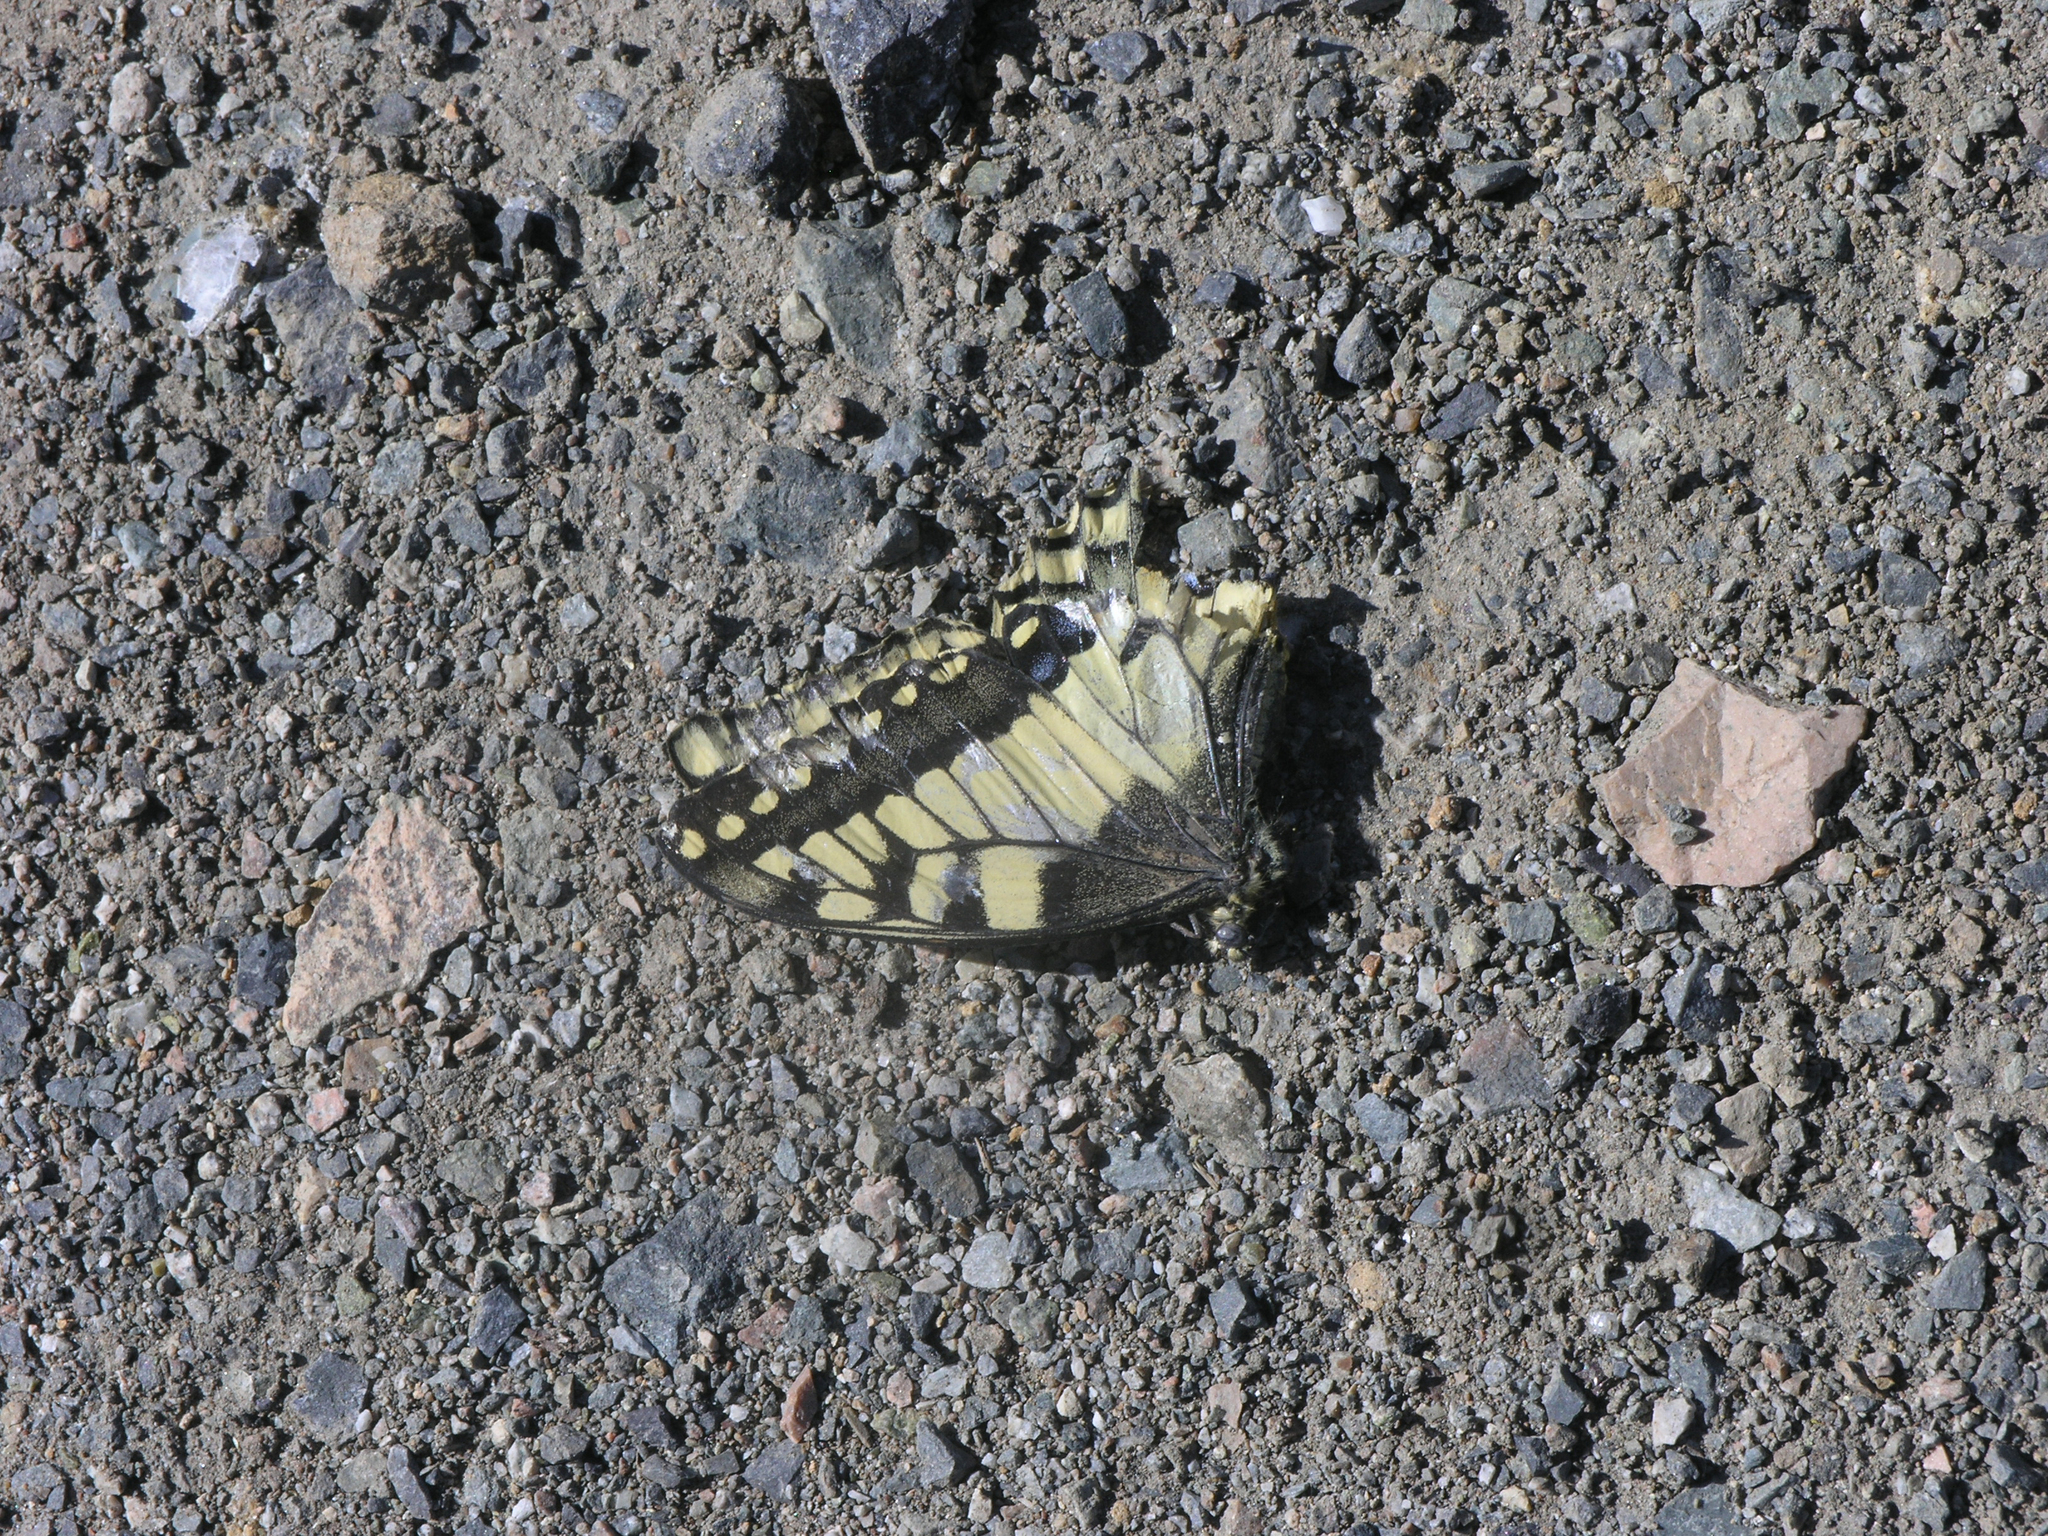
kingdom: Animalia
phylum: Arthropoda
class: Insecta
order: Lepidoptera
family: Papilionidae
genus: Papilio
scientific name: Papilio machaon
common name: Swallowtail
